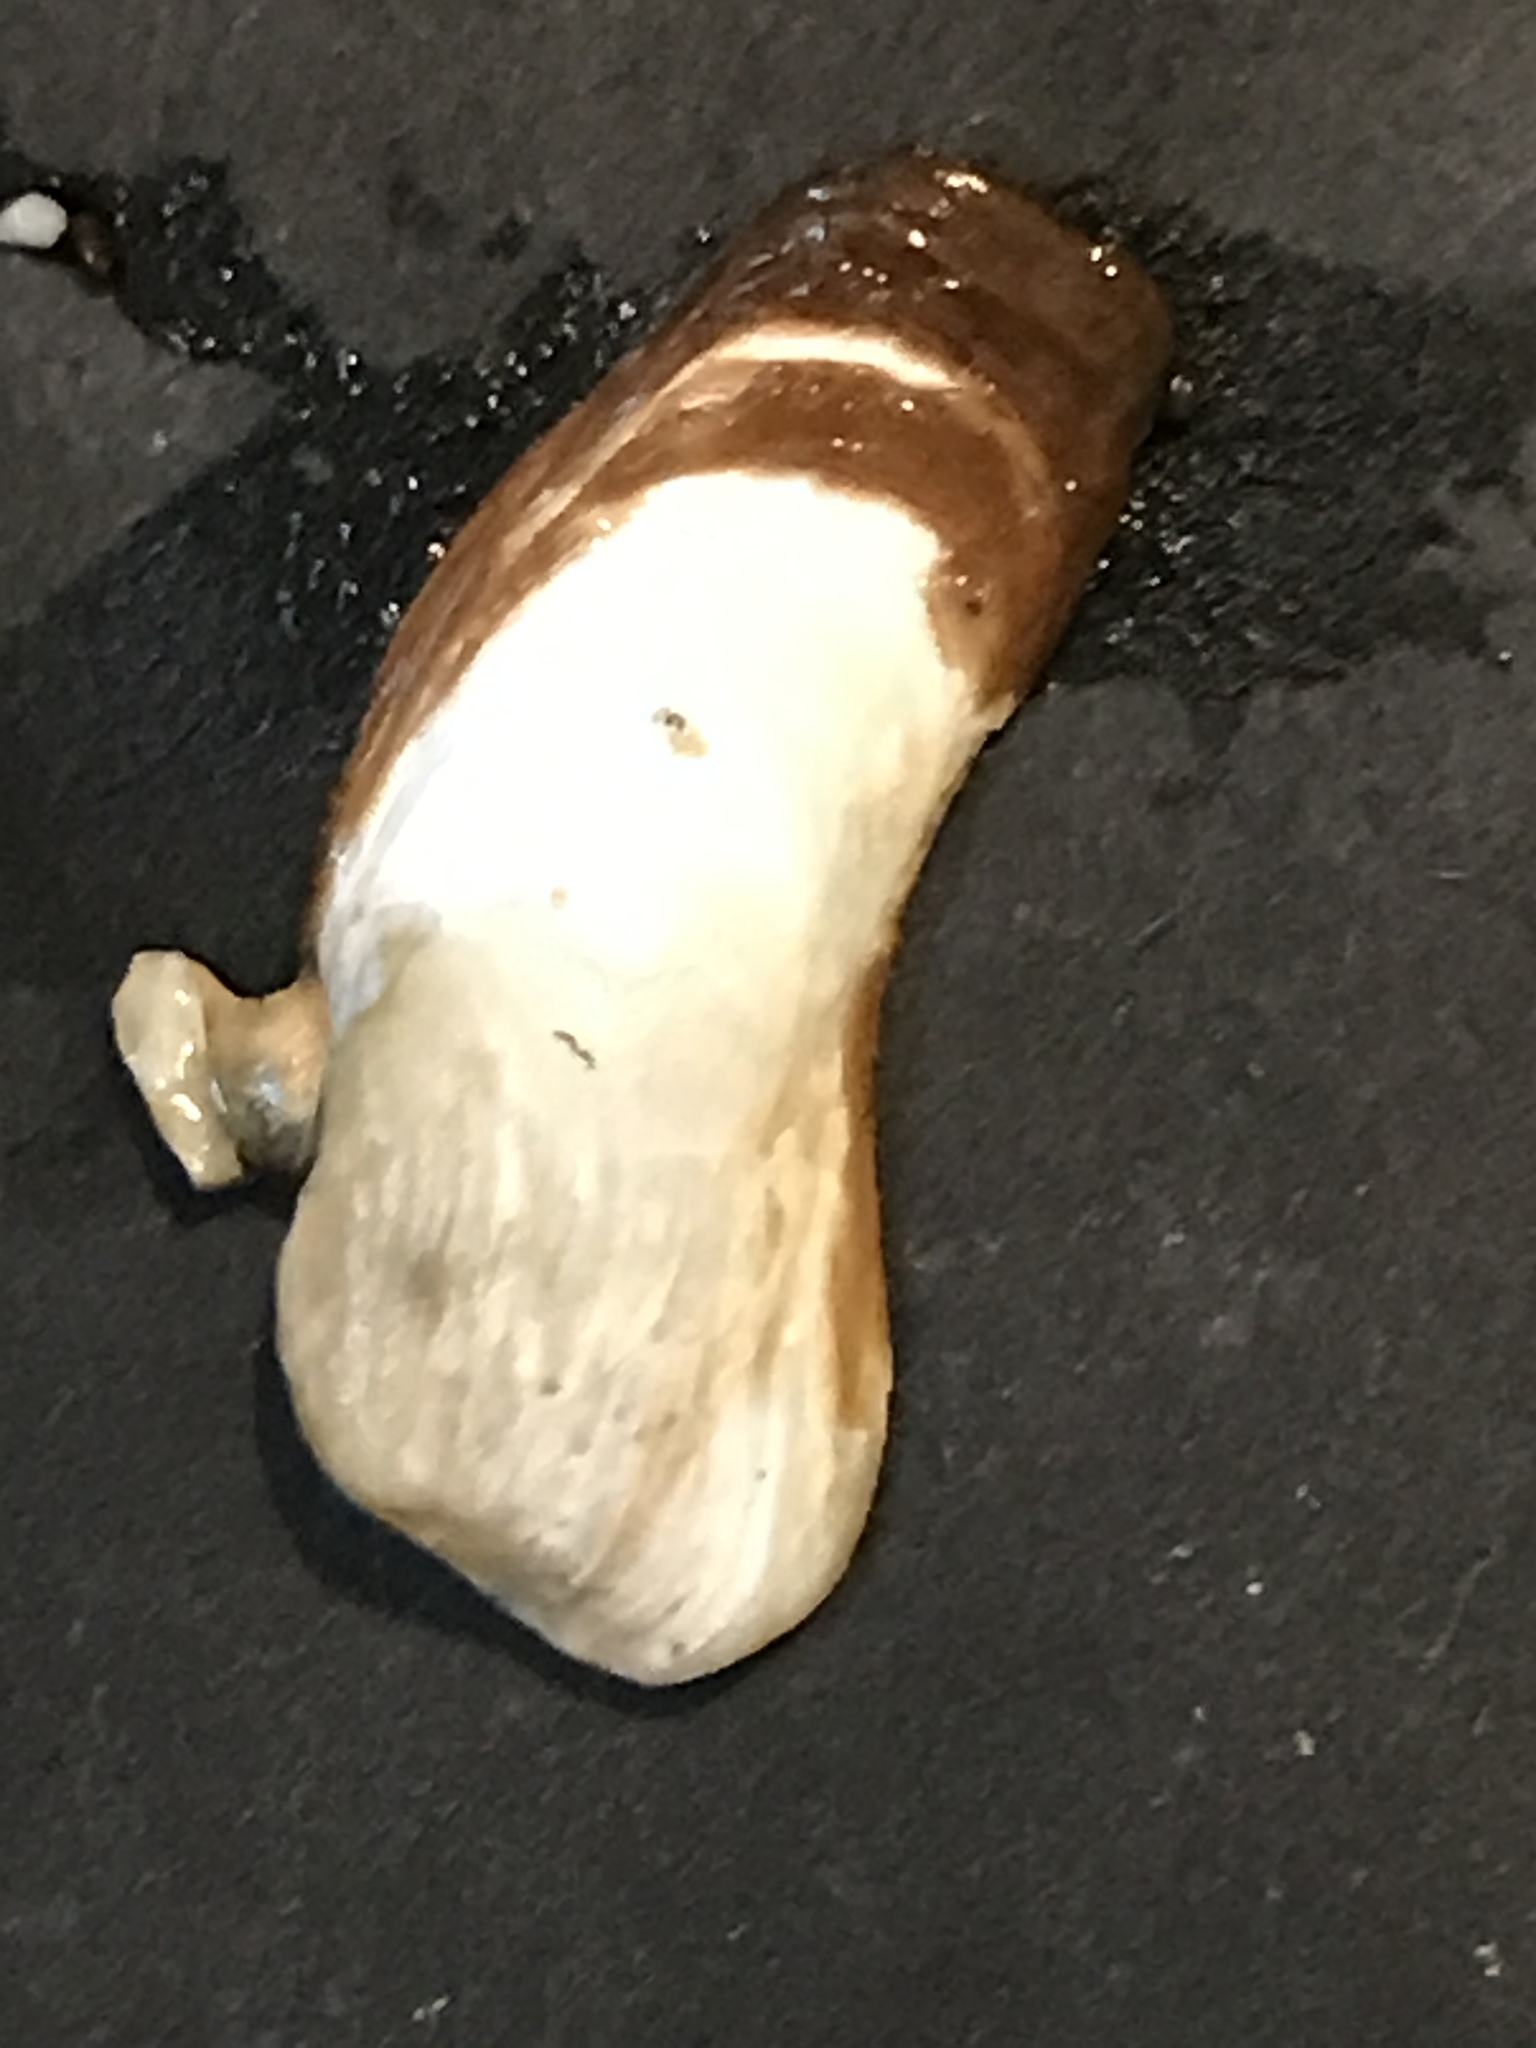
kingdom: Animalia
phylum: Mollusca
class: Bivalvia
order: Adapedonta
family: Hiatellidae
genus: Hiatella
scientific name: Hiatella arctica
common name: Arctic hiatella
